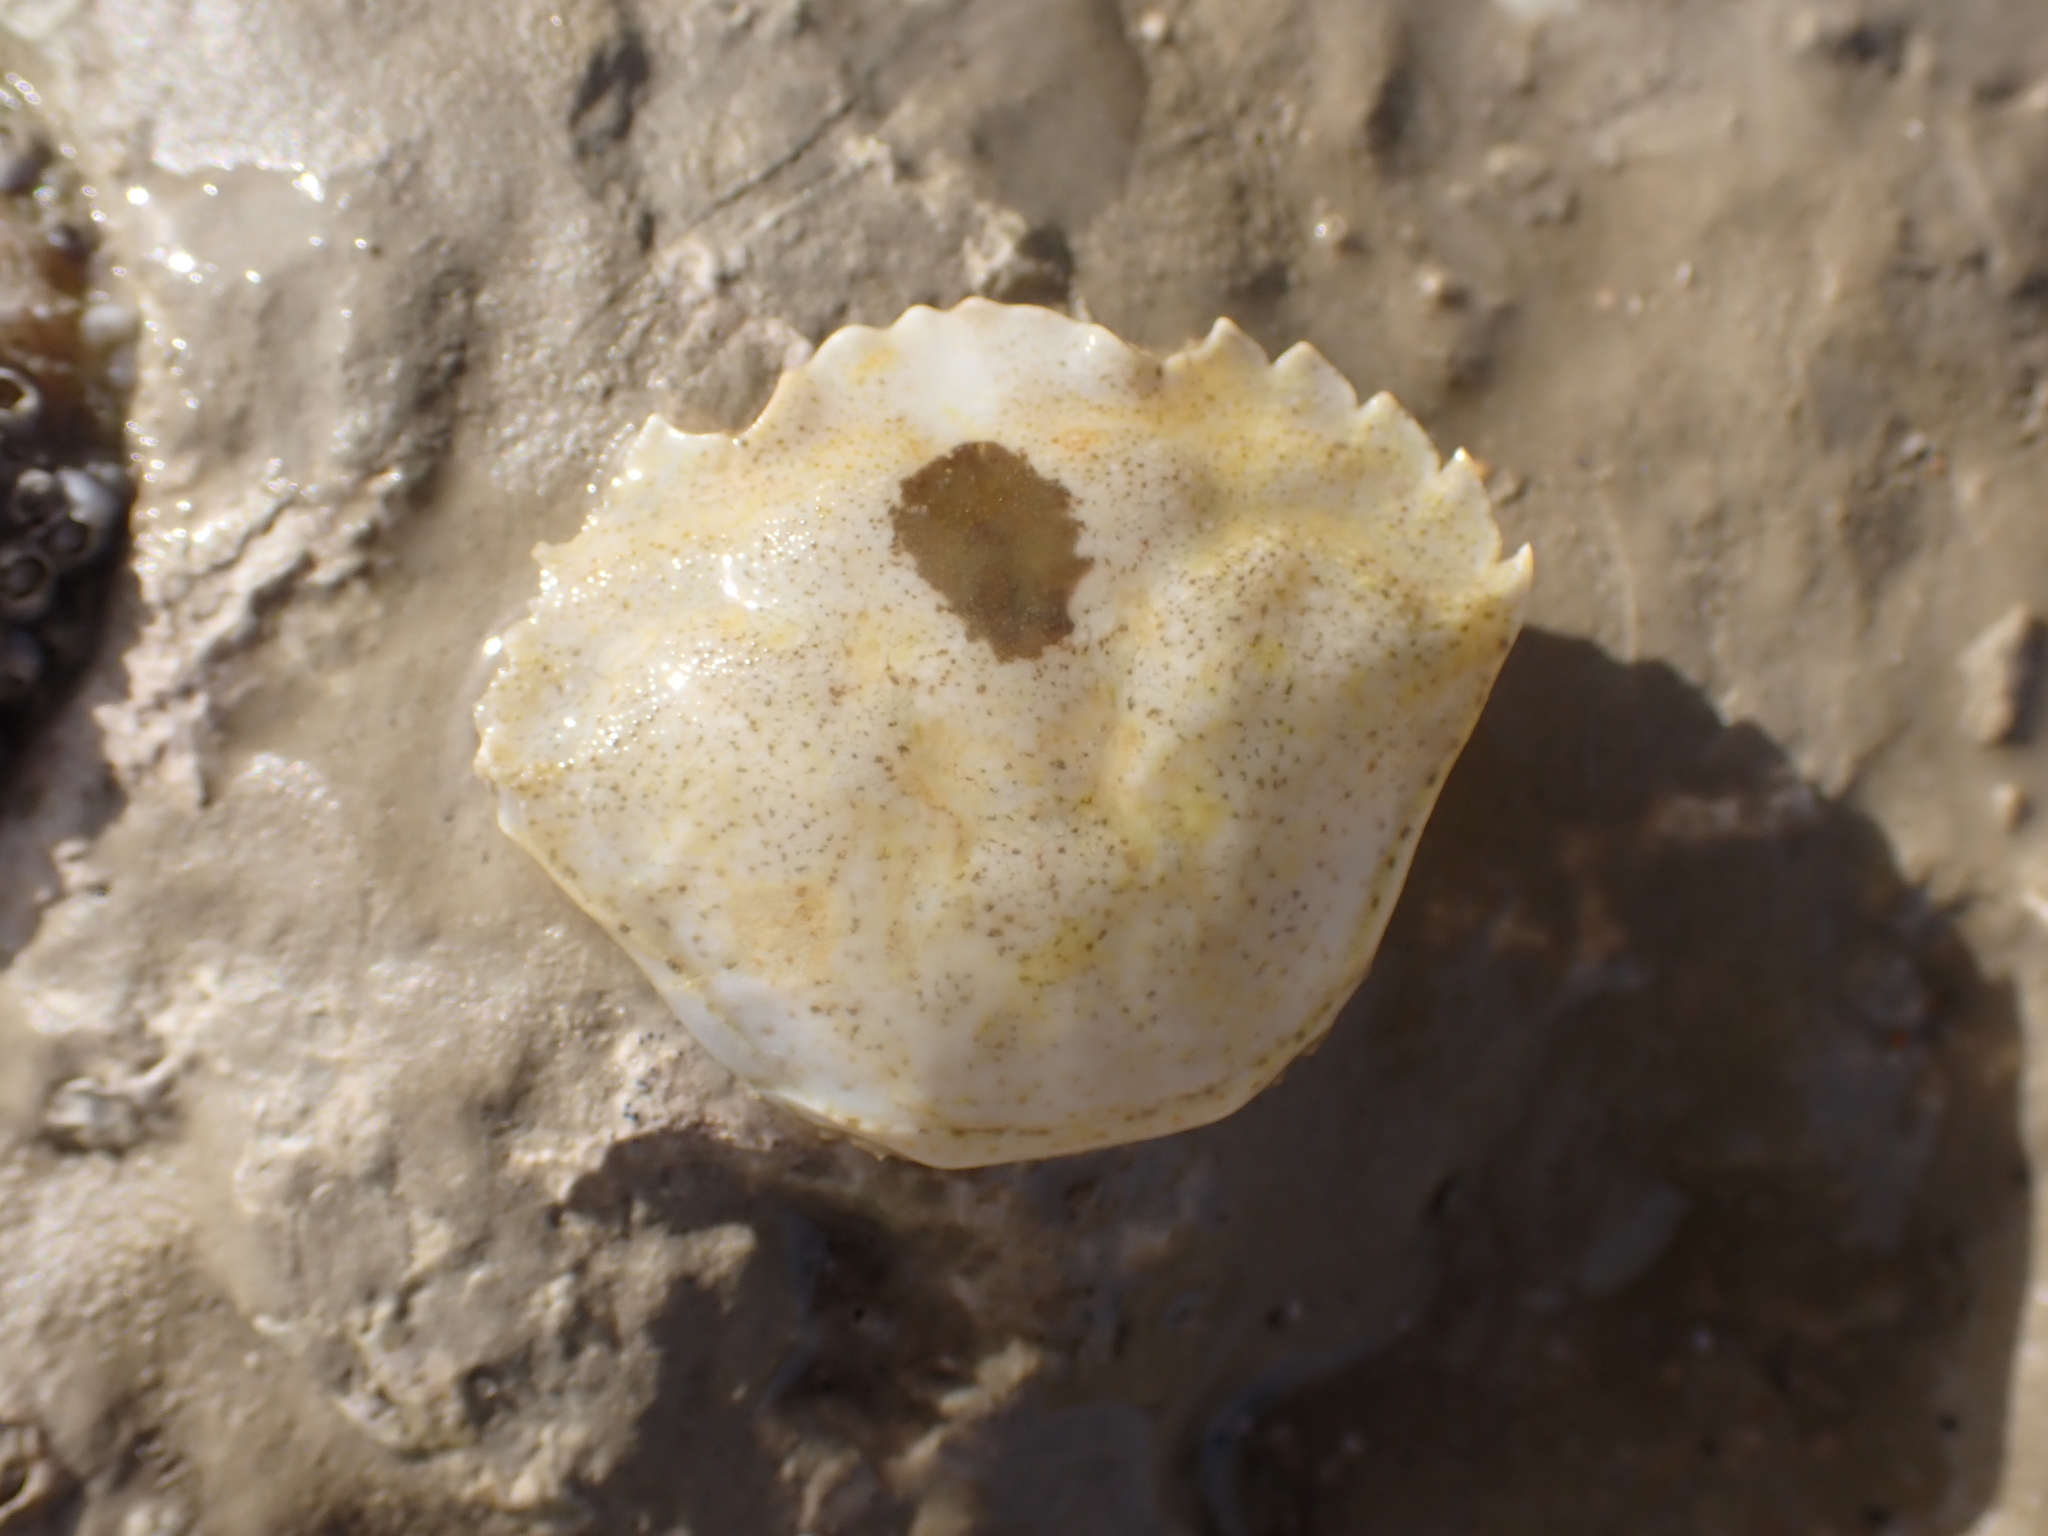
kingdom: Animalia
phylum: Arthropoda
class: Malacostraca
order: Decapoda
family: Carcinidae
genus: Carcinus
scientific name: Carcinus maenas
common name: European green crab
